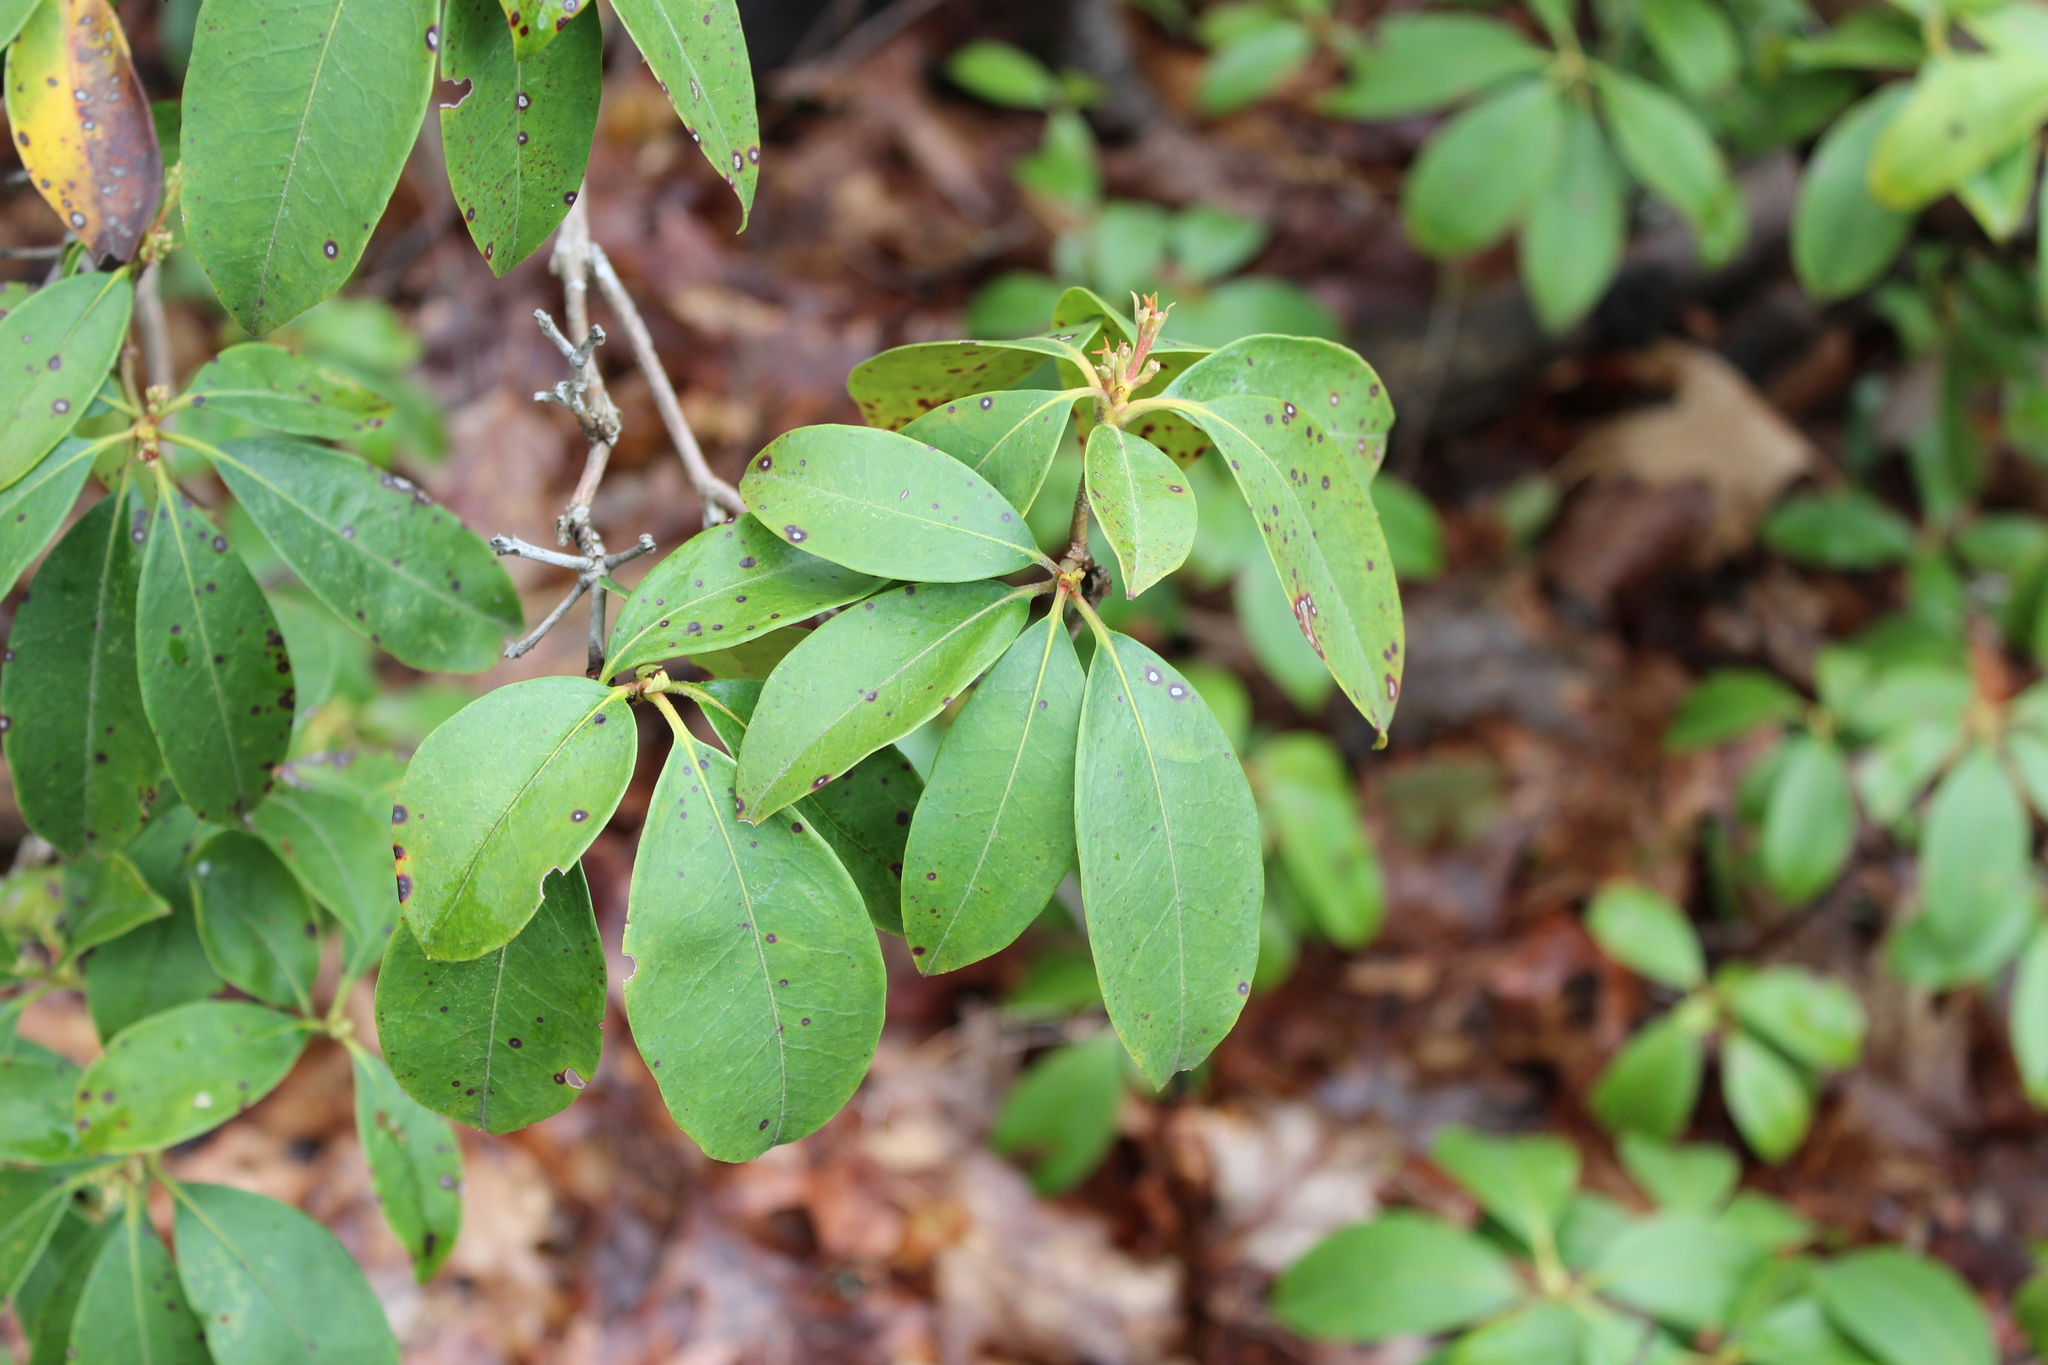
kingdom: Plantae
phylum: Tracheophyta
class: Magnoliopsida
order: Ericales
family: Ericaceae
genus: Kalmia
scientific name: Kalmia latifolia
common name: Mountain-laurel
